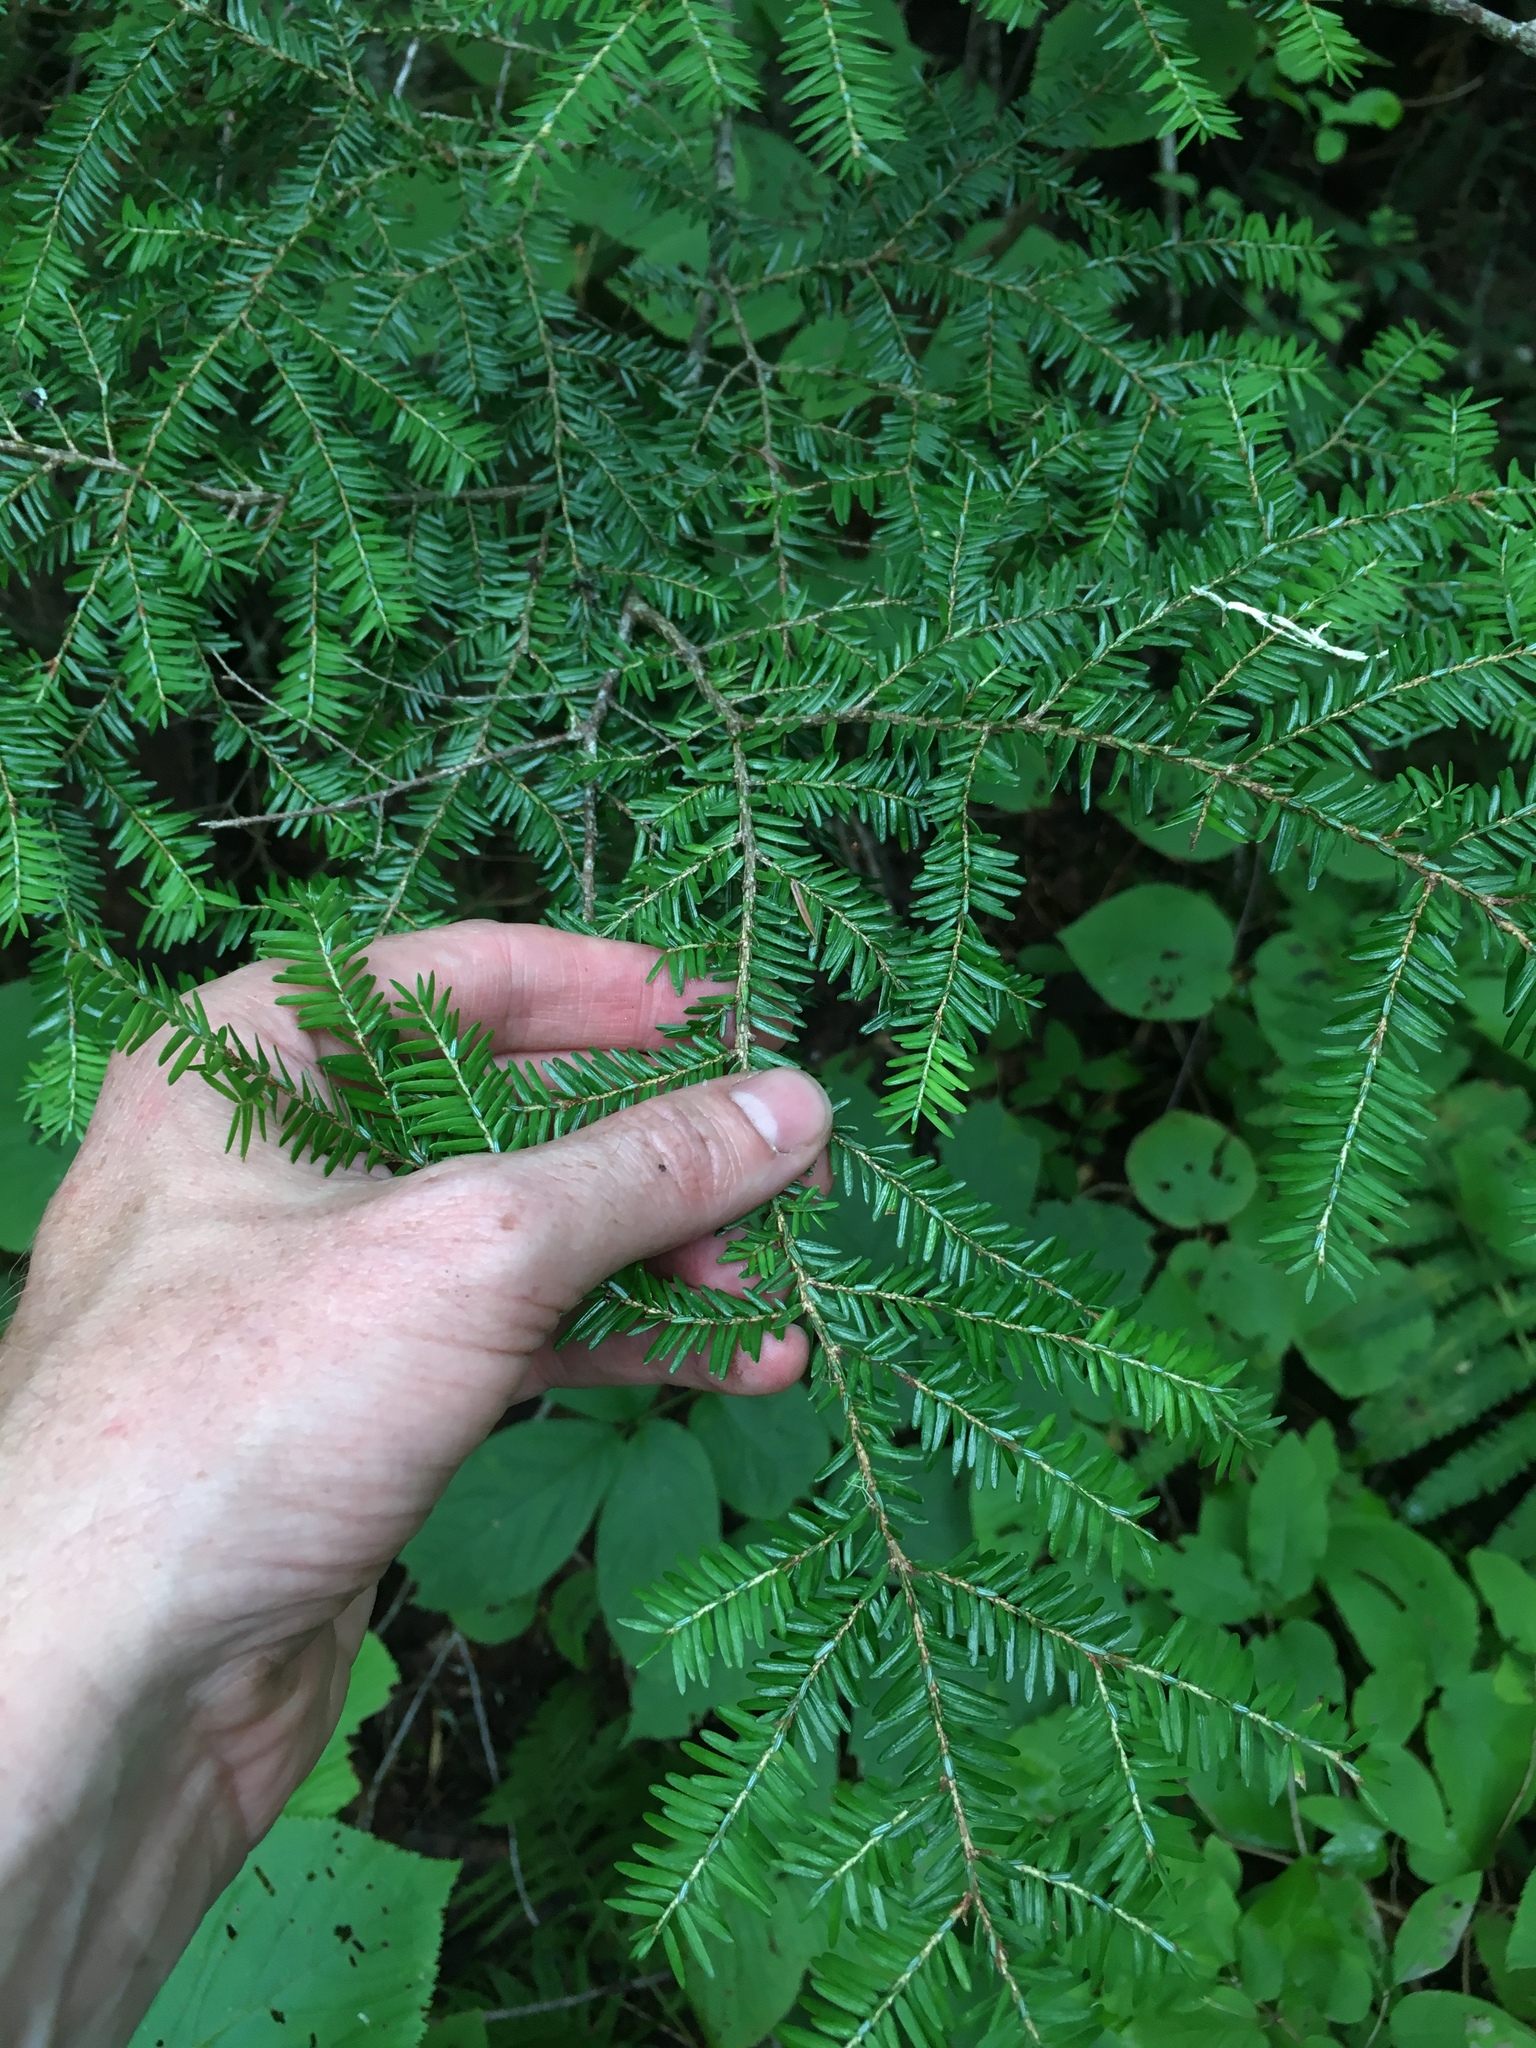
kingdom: Plantae
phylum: Tracheophyta
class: Pinopsida
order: Pinales
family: Pinaceae
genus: Tsuga
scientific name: Tsuga canadensis
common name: Eastern hemlock
